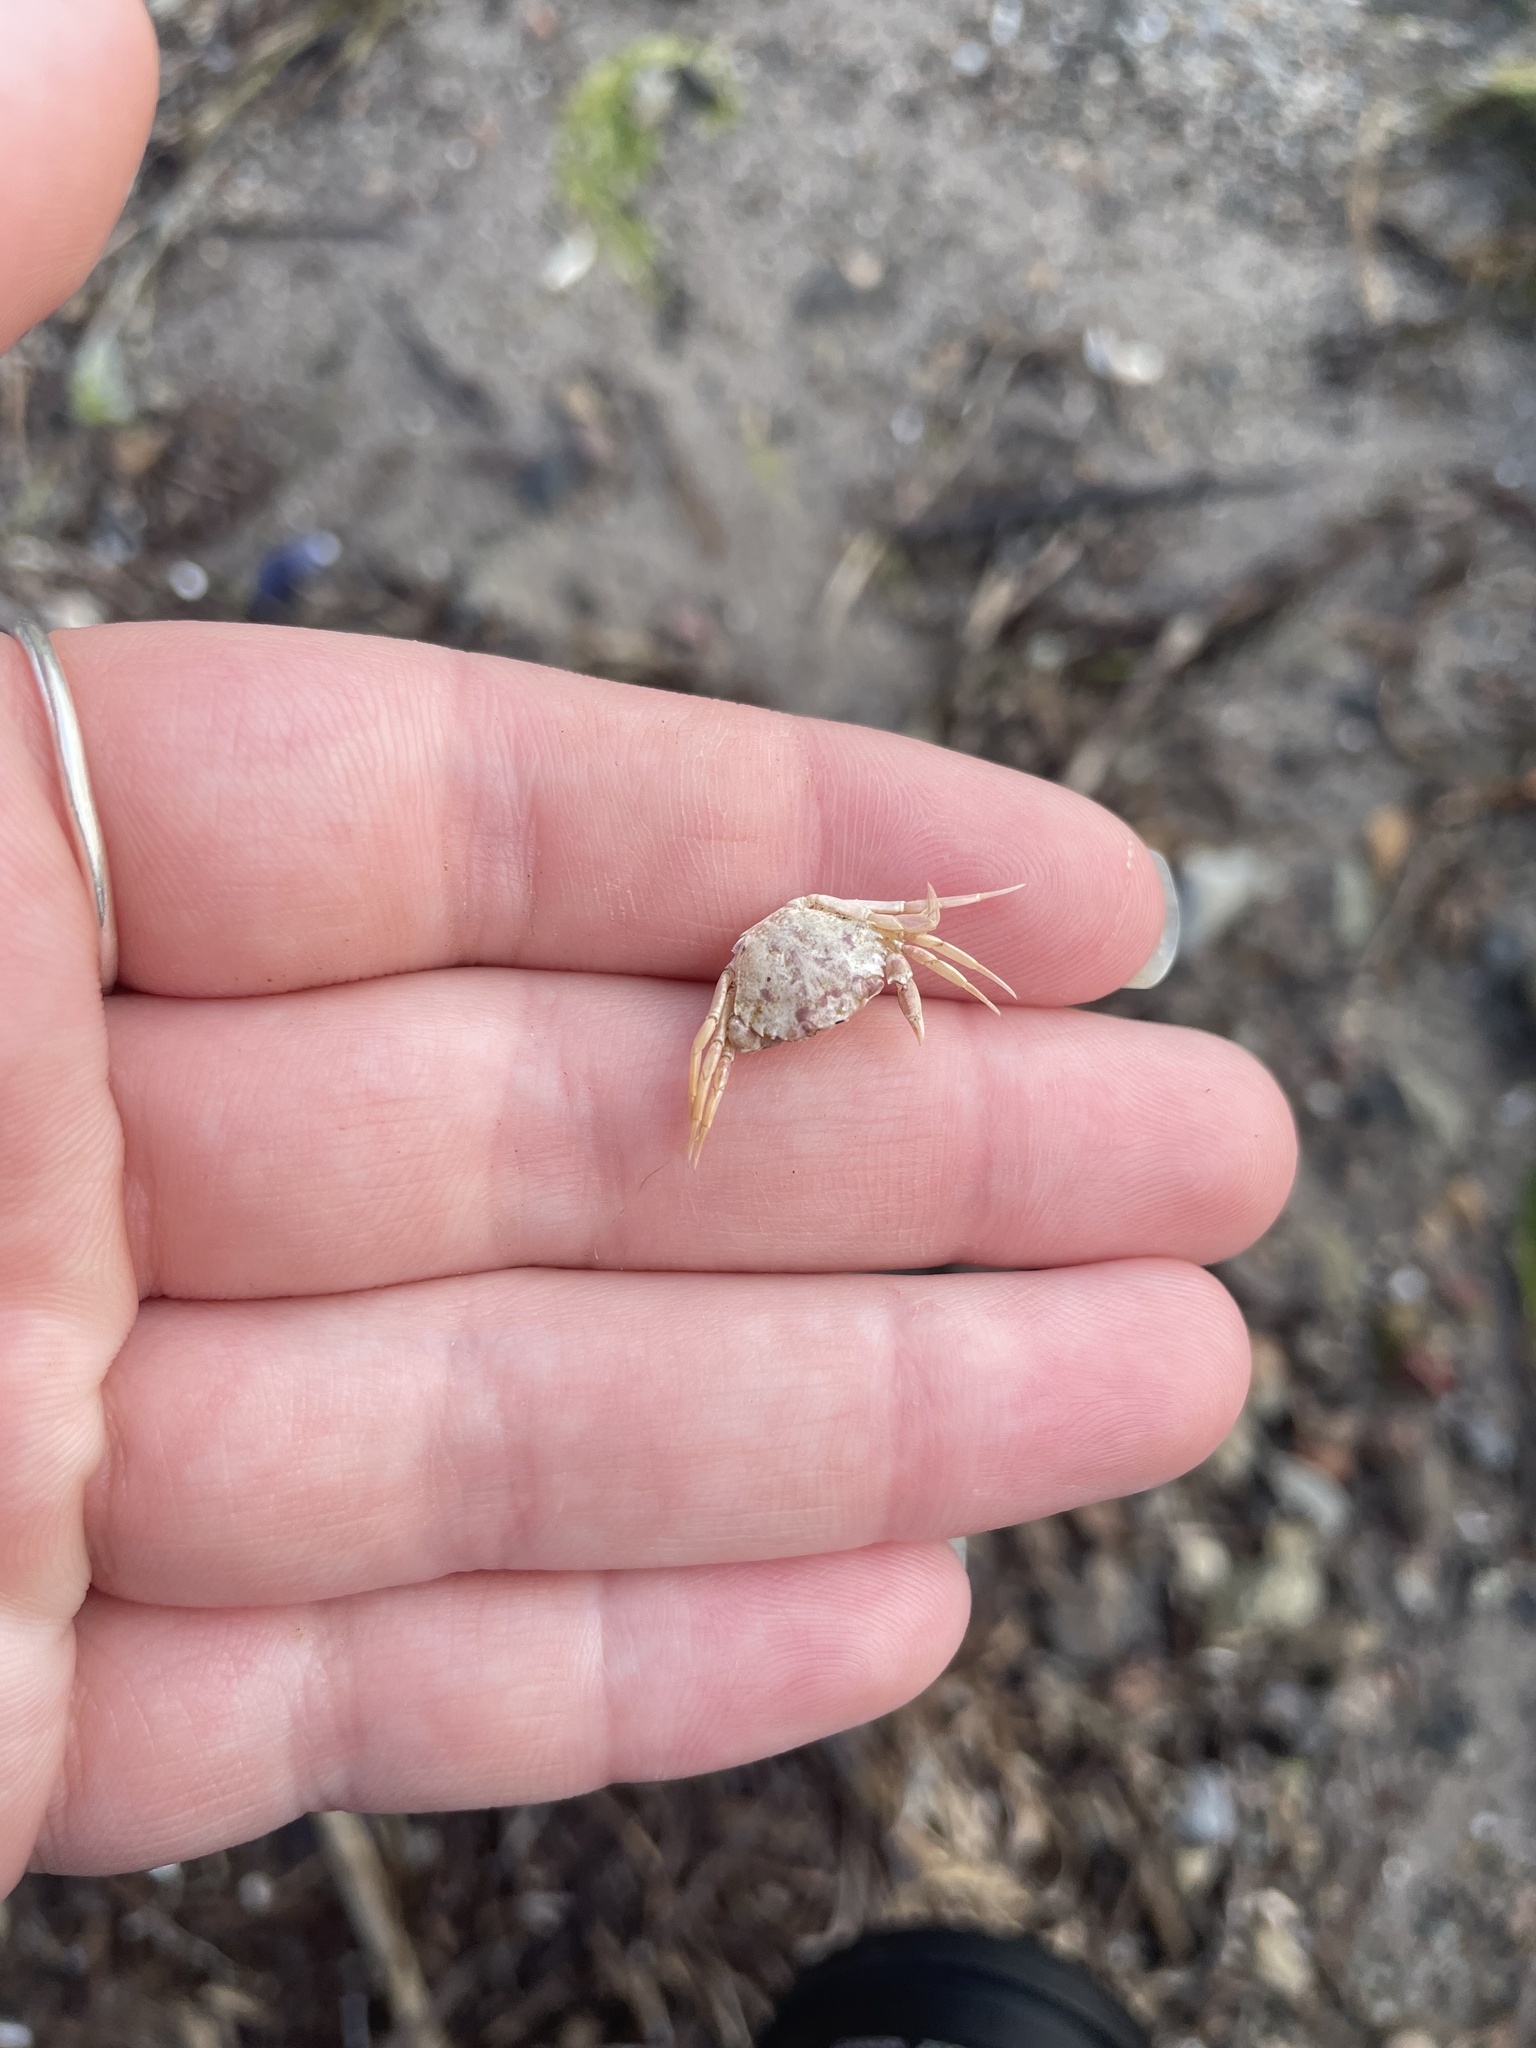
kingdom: Animalia
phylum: Arthropoda
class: Malacostraca
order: Decapoda
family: Carcinidae
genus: Carcinus
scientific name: Carcinus maenas
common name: European green crab
